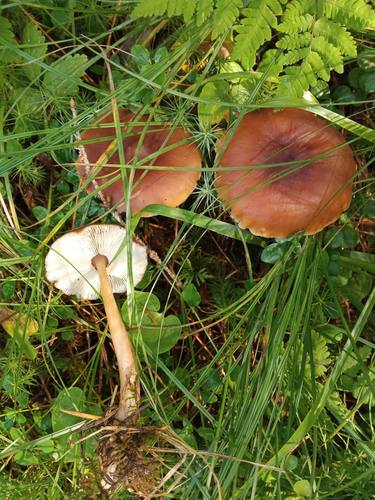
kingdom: Fungi
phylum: Basidiomycota
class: Agaricomycetes
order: Agaricales
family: Omphalotaceae
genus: Rhodocollybia
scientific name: Rhodocollybia butyracea
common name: Butter cap
